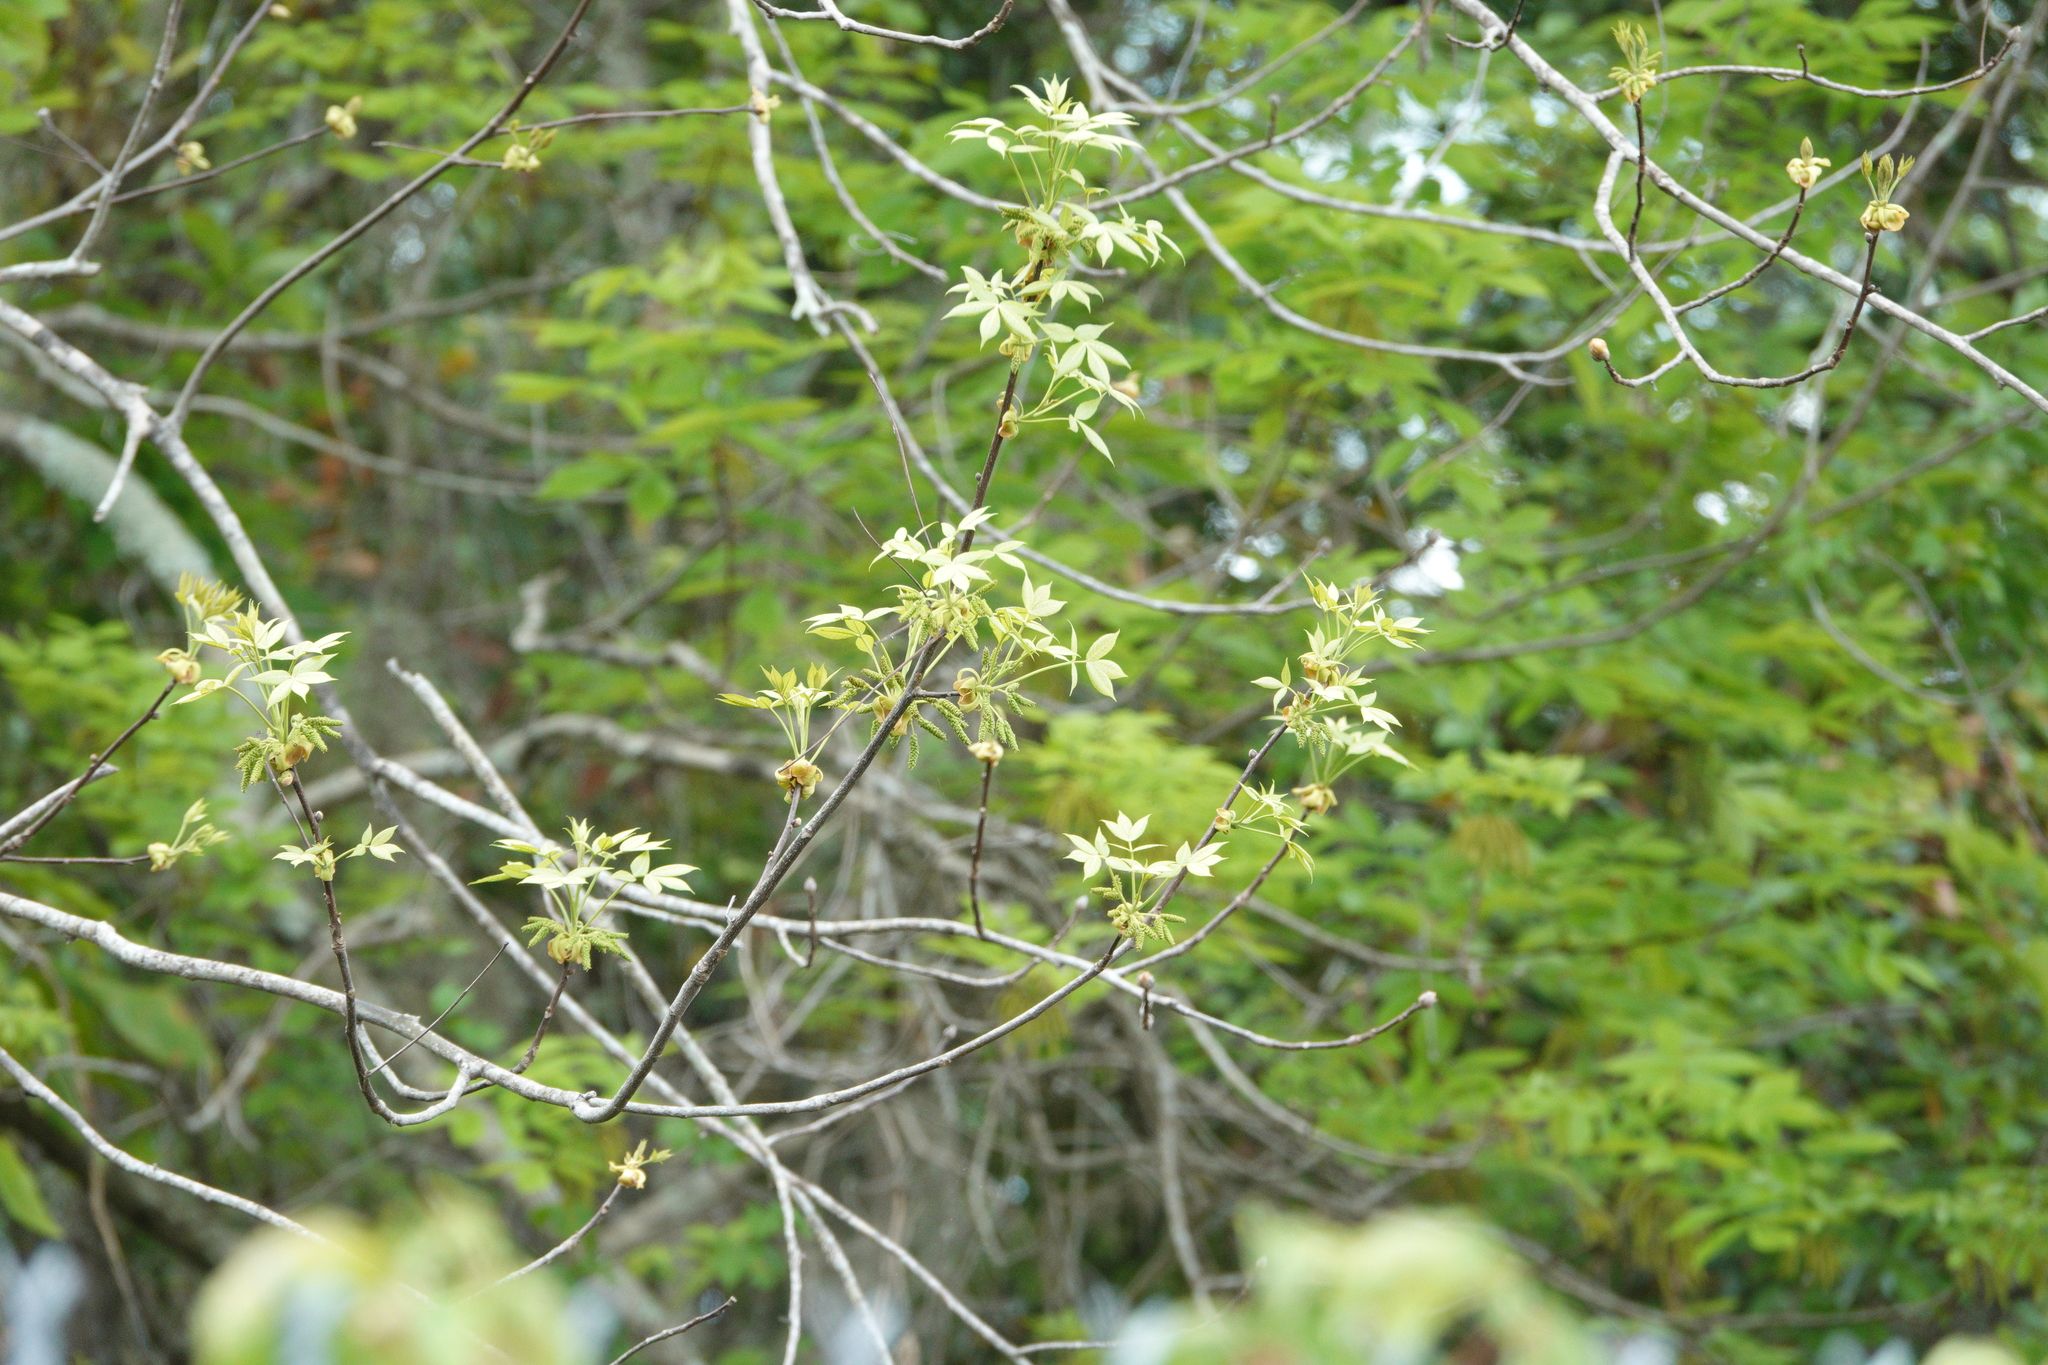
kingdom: Plantae
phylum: Tracheophyta
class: Magnoliopsida
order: Fagales
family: Juglandaceae
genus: Carya
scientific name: Carya glabra
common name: Pignut hickory
